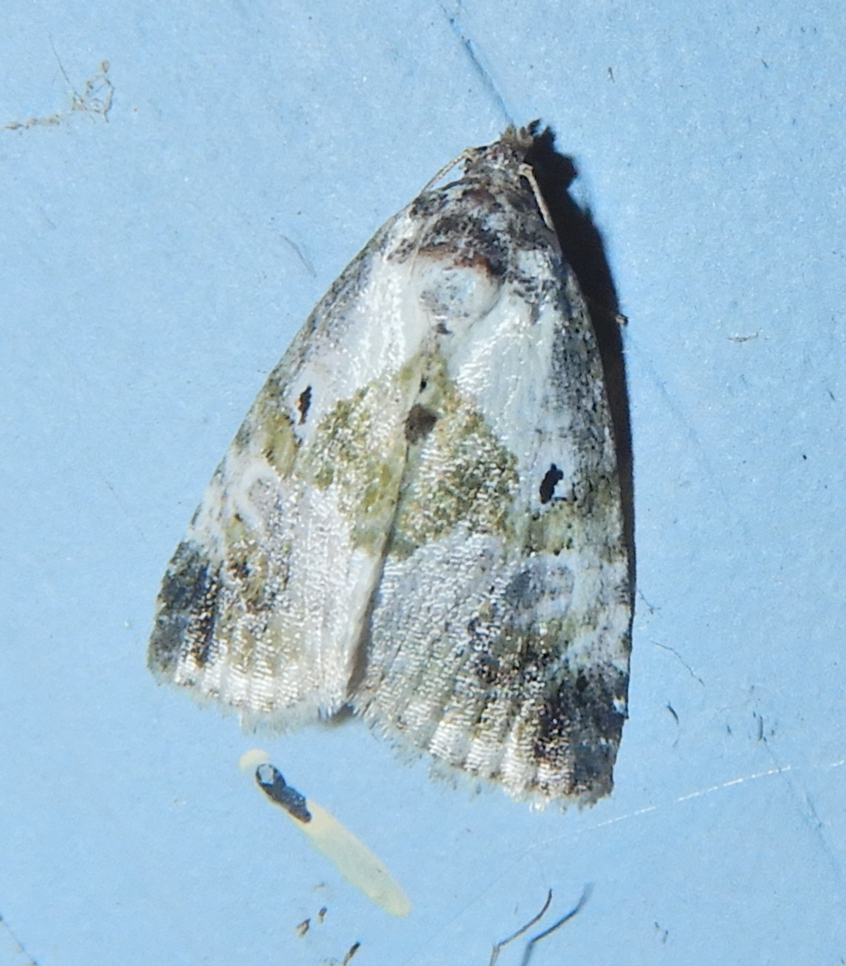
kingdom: Animalia
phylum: Arthropoda
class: Insecta
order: Lepidoptera
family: Noctuidae
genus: Maliattha
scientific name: Maliattha synochitis
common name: Black-dotted glyph
